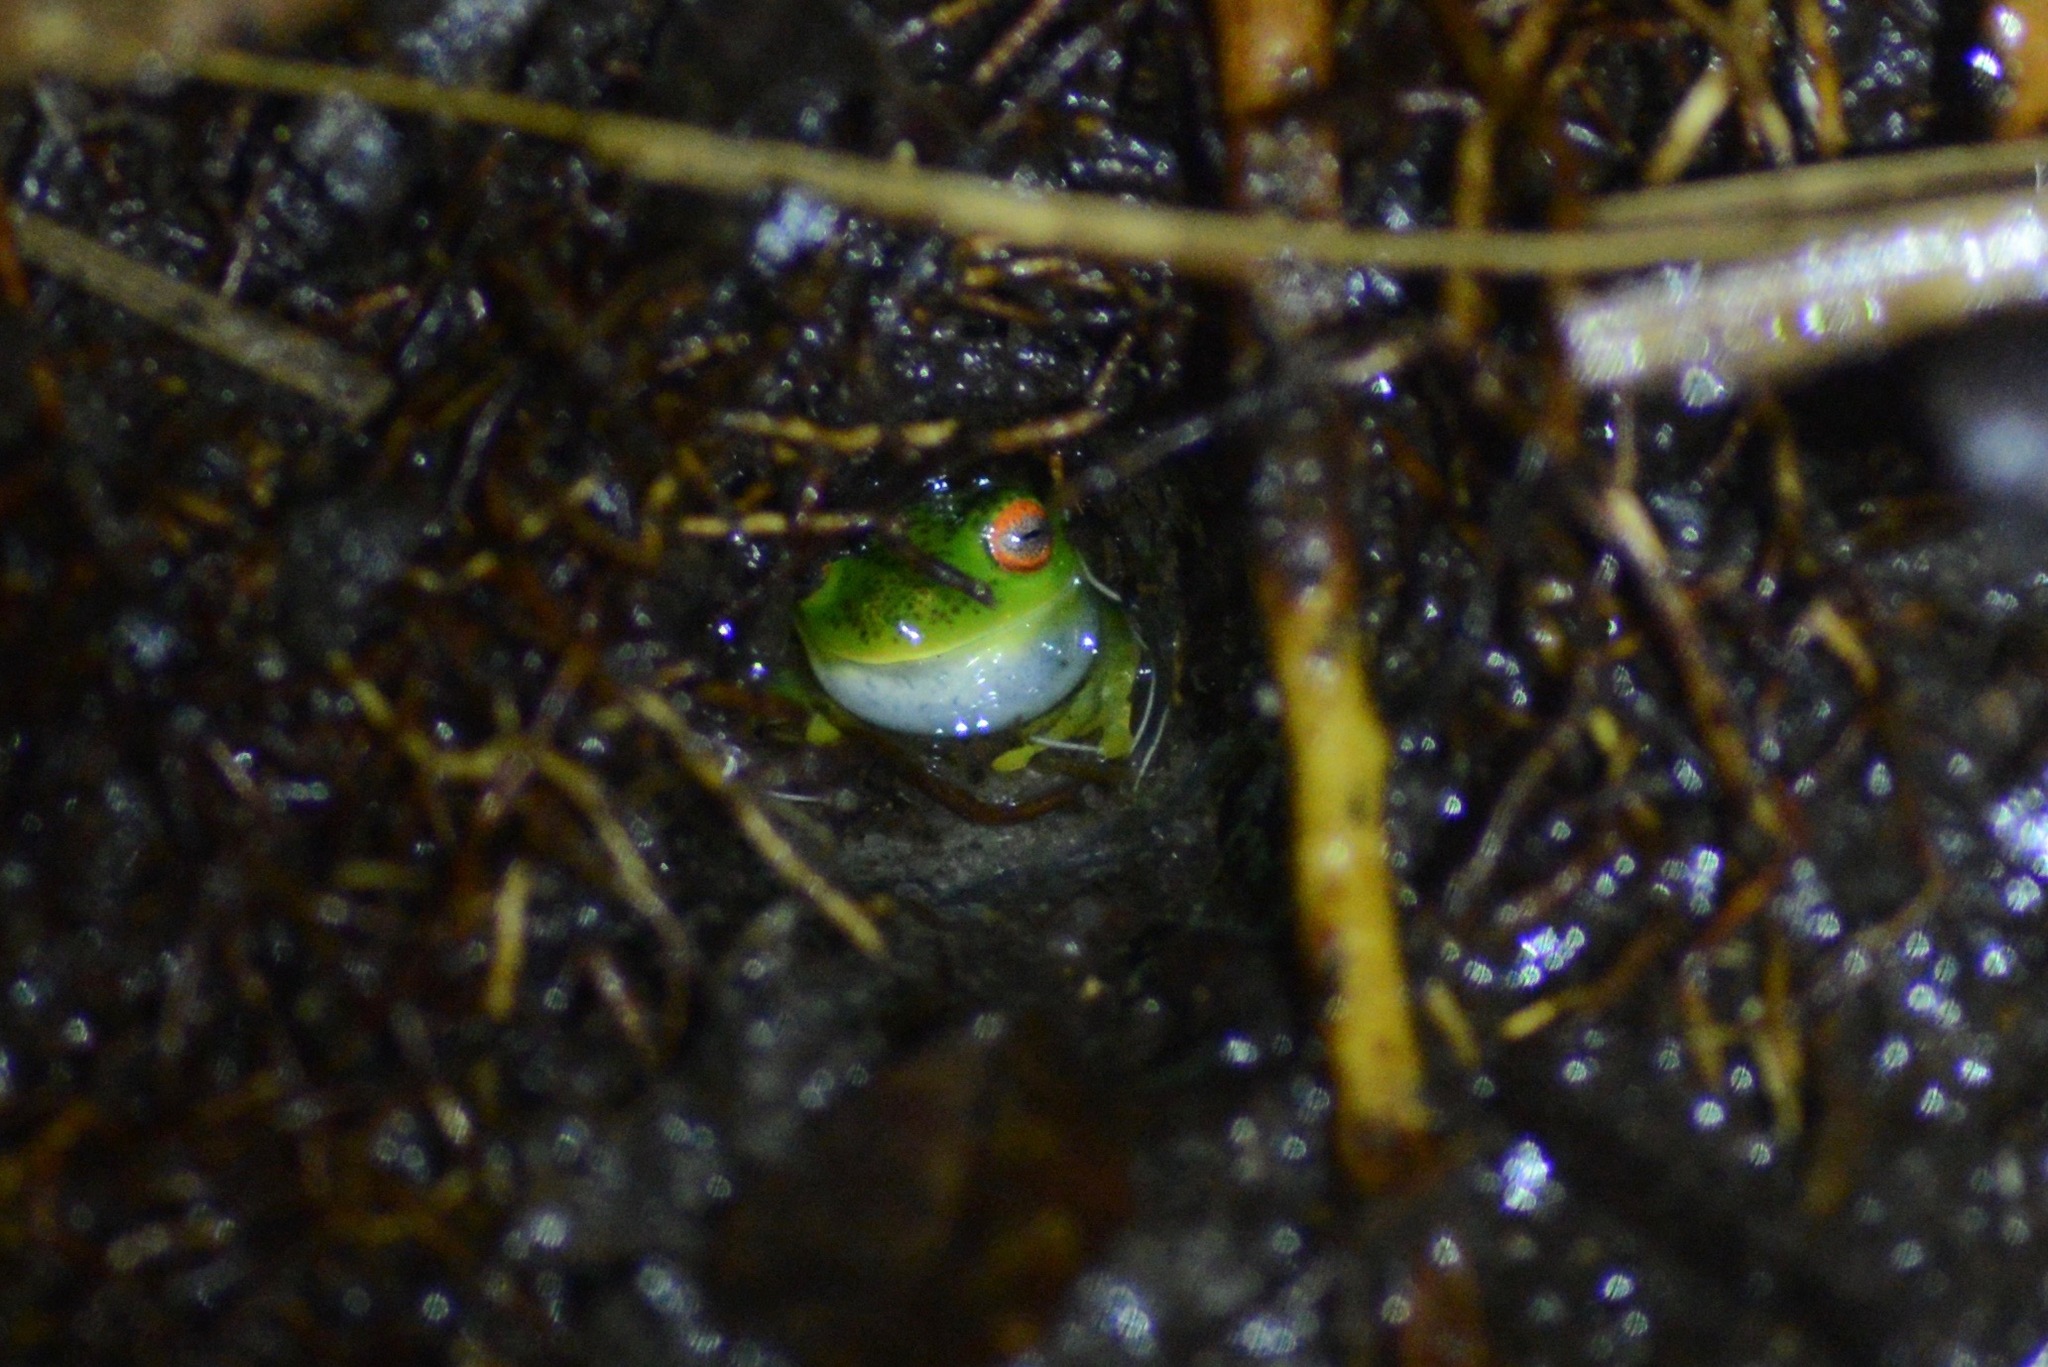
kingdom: Animalia
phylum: Chordata
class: Amphibia
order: Anura
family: Hylidae
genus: Aplastodiscus
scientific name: Aplastodiscus sibilatus
